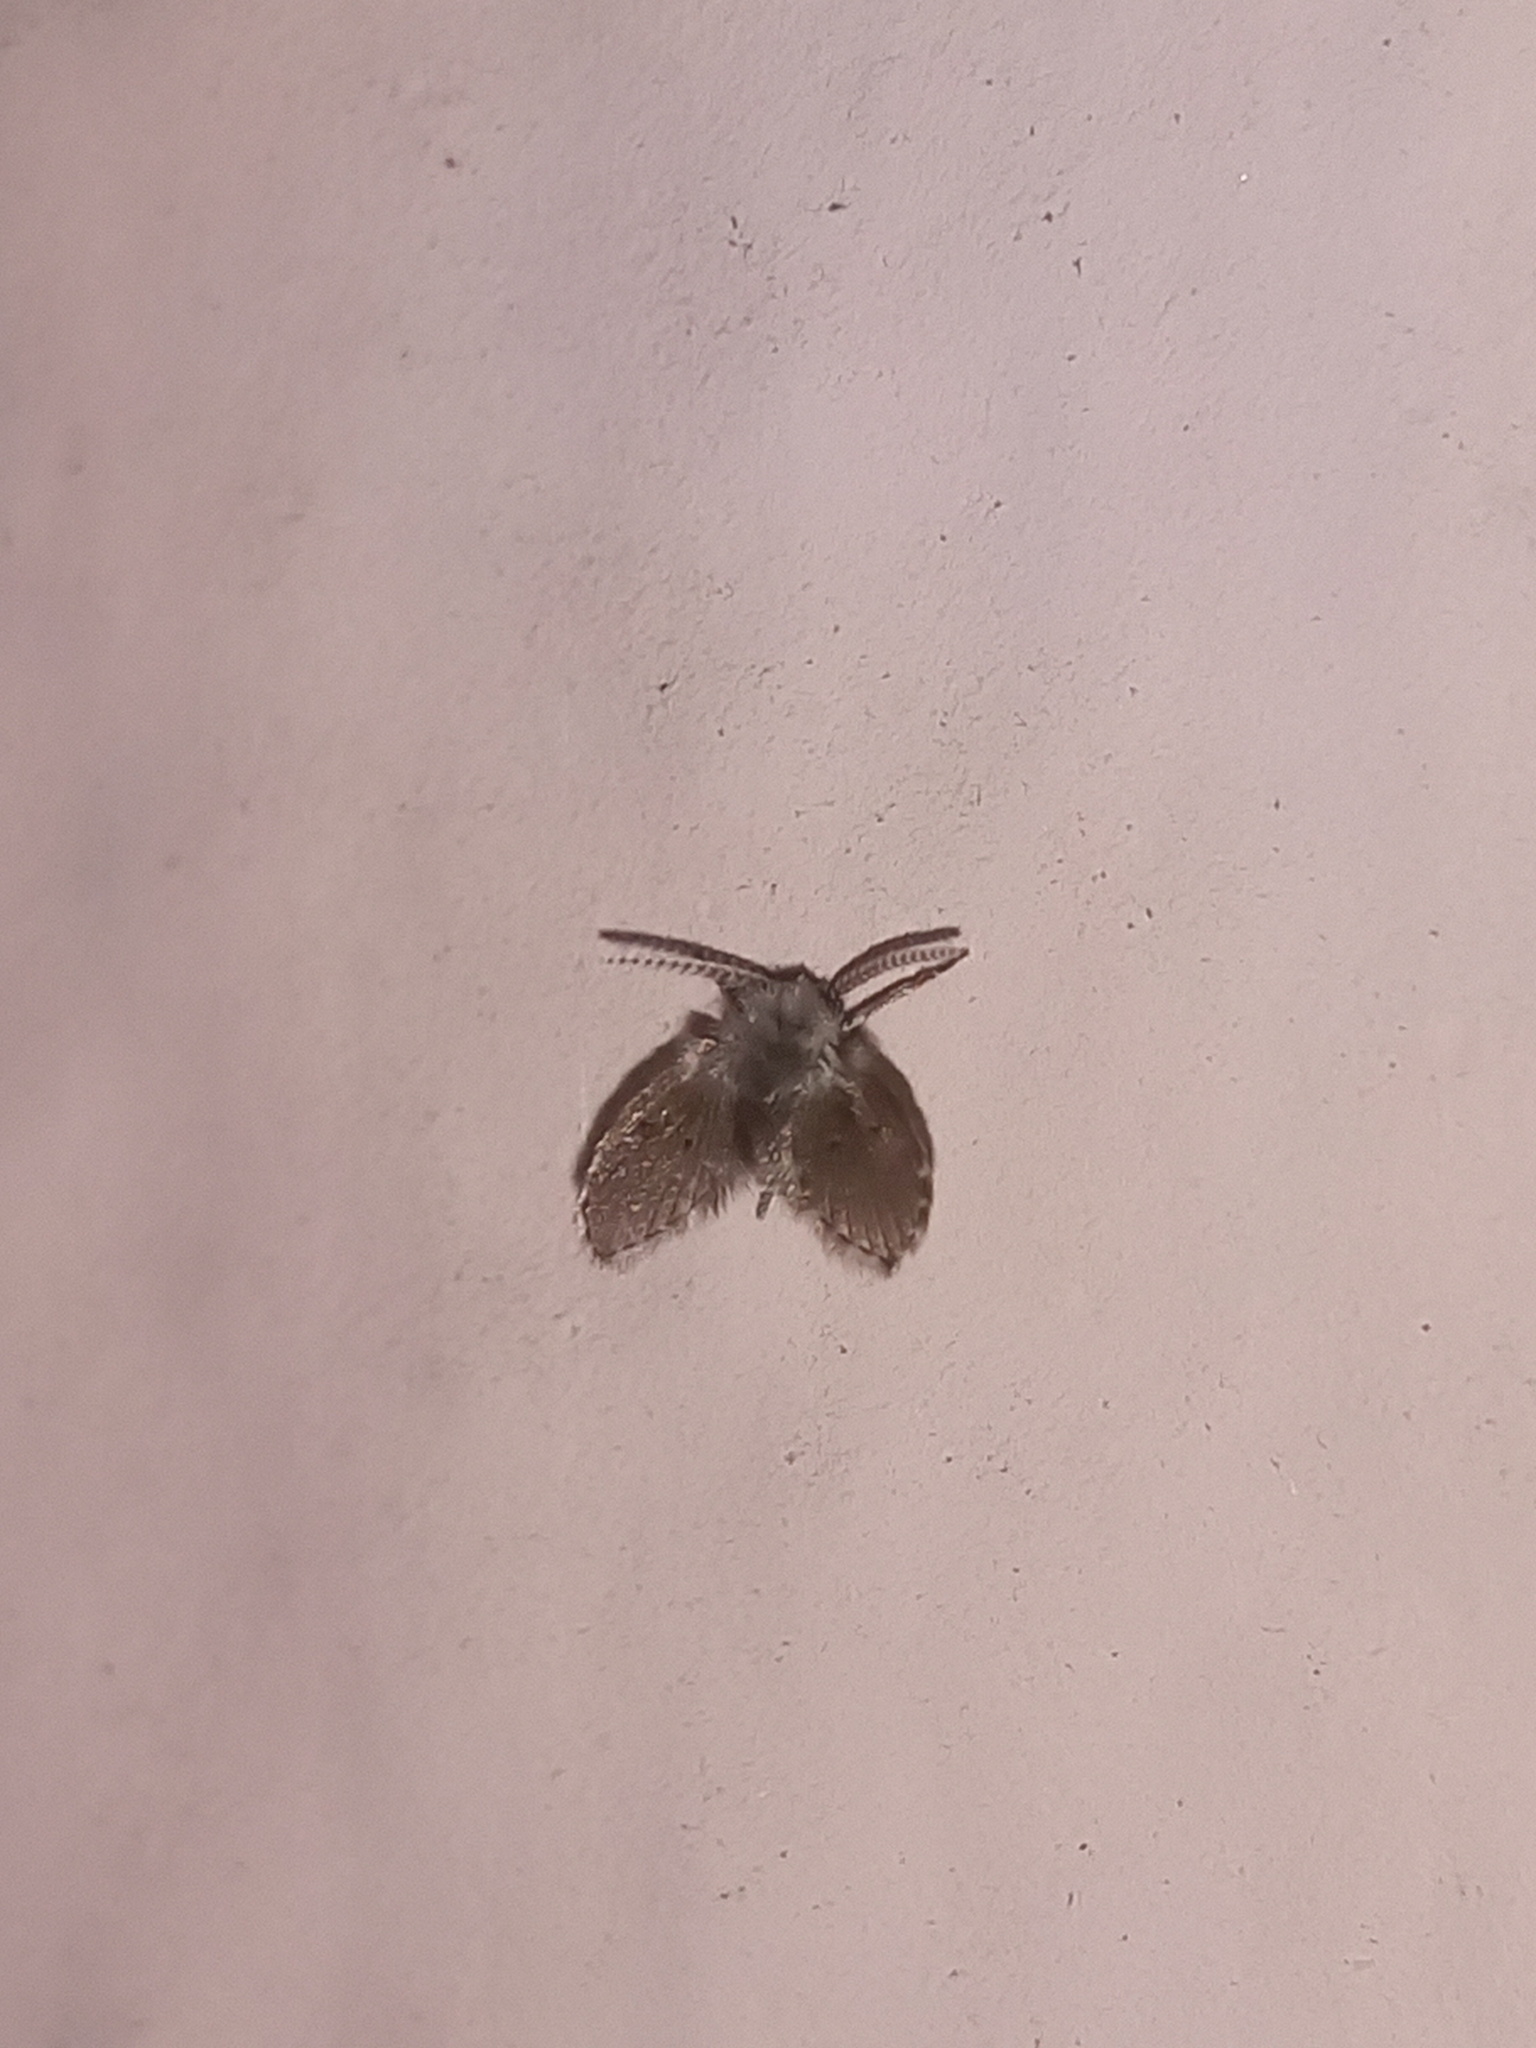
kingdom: Animalia
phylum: Arthropoda
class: Insecta
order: Diptera
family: Psychodidae
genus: Clogmia
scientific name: Clogmia albipunctatus
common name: White-spotted moth fly
